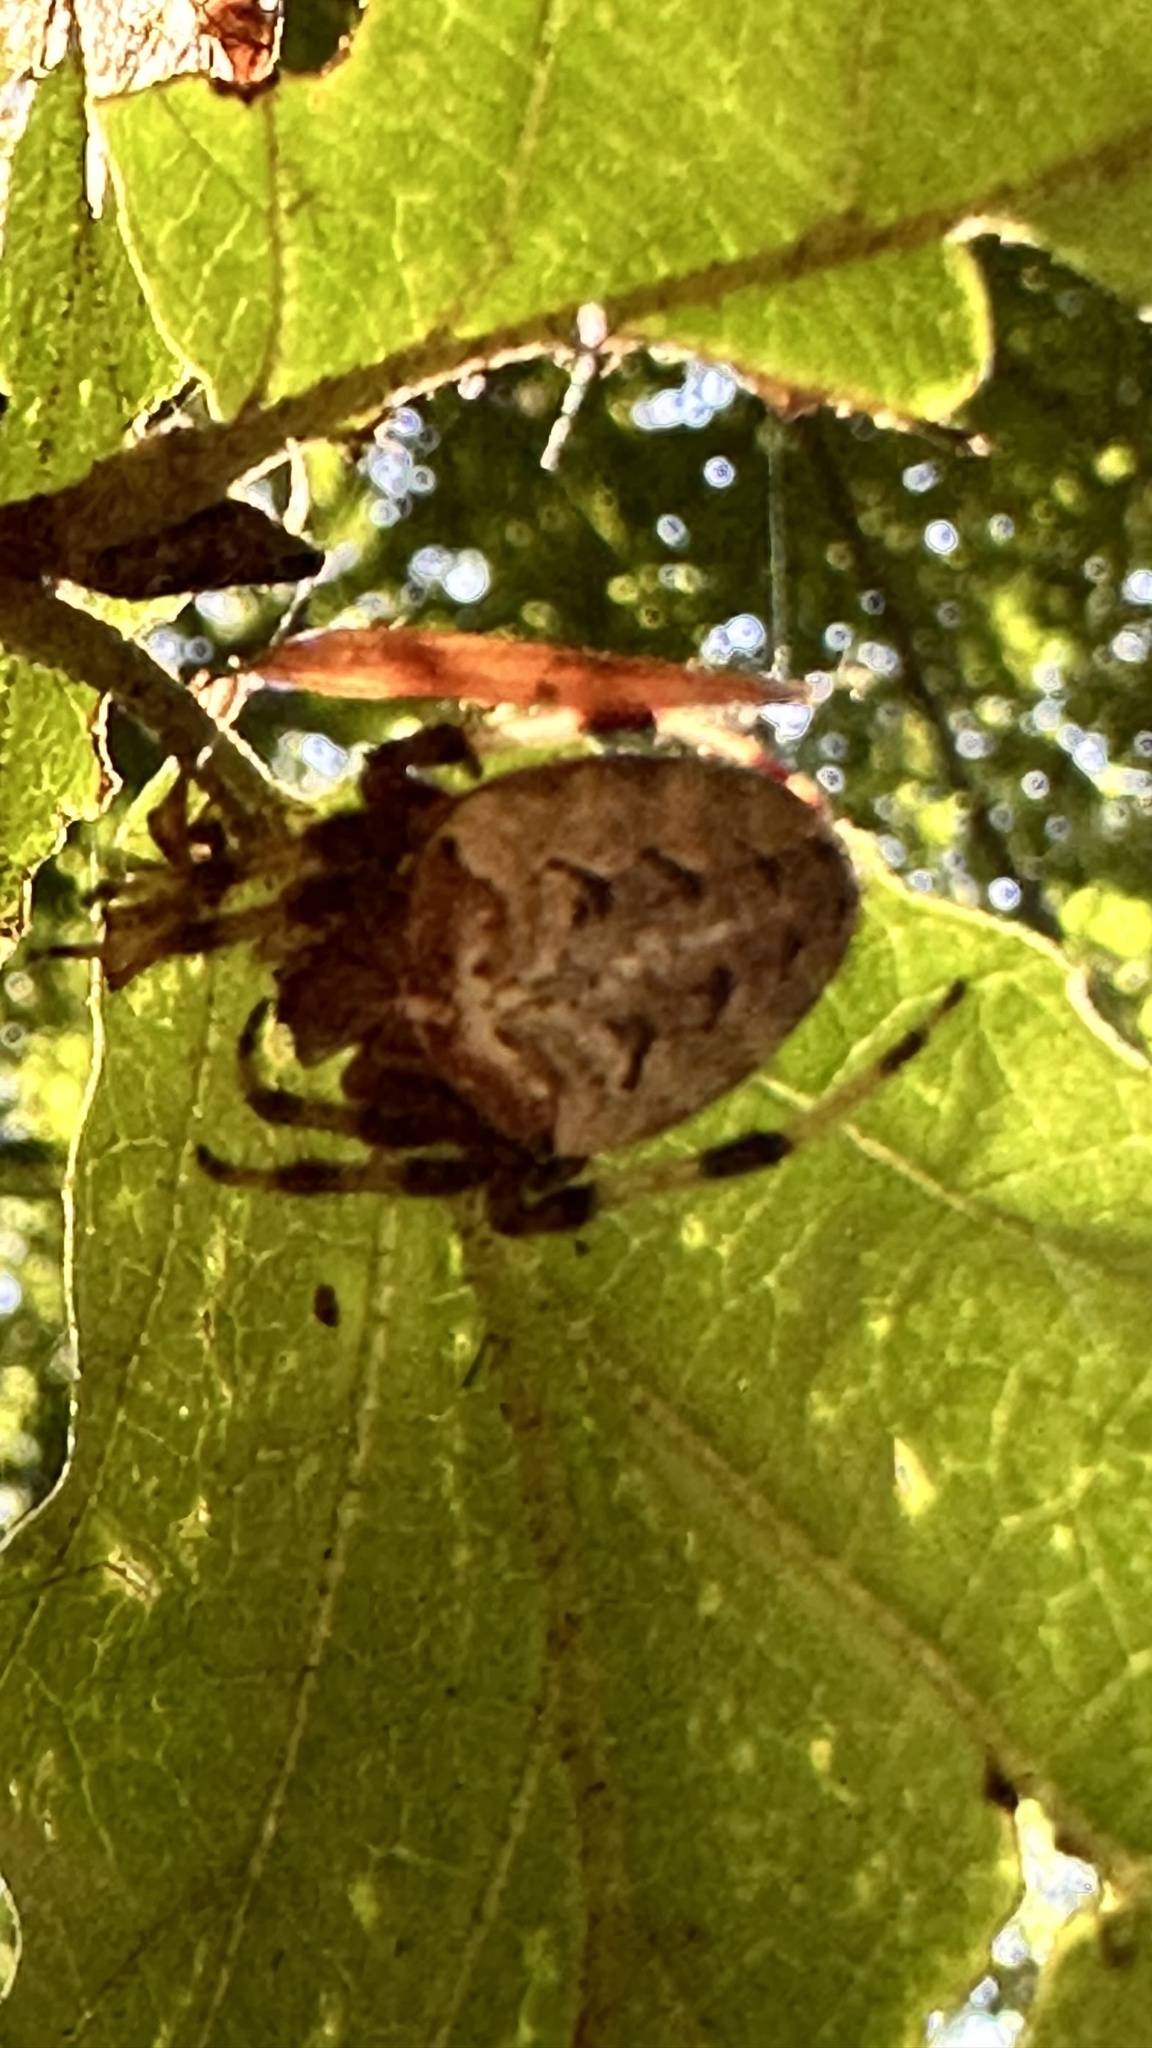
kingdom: Animalia
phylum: Arthropoda
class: Arachnida
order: Araneae
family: Araneidae
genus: Araneus
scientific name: Araneus nordmanni
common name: Nordmann's orbweaver
